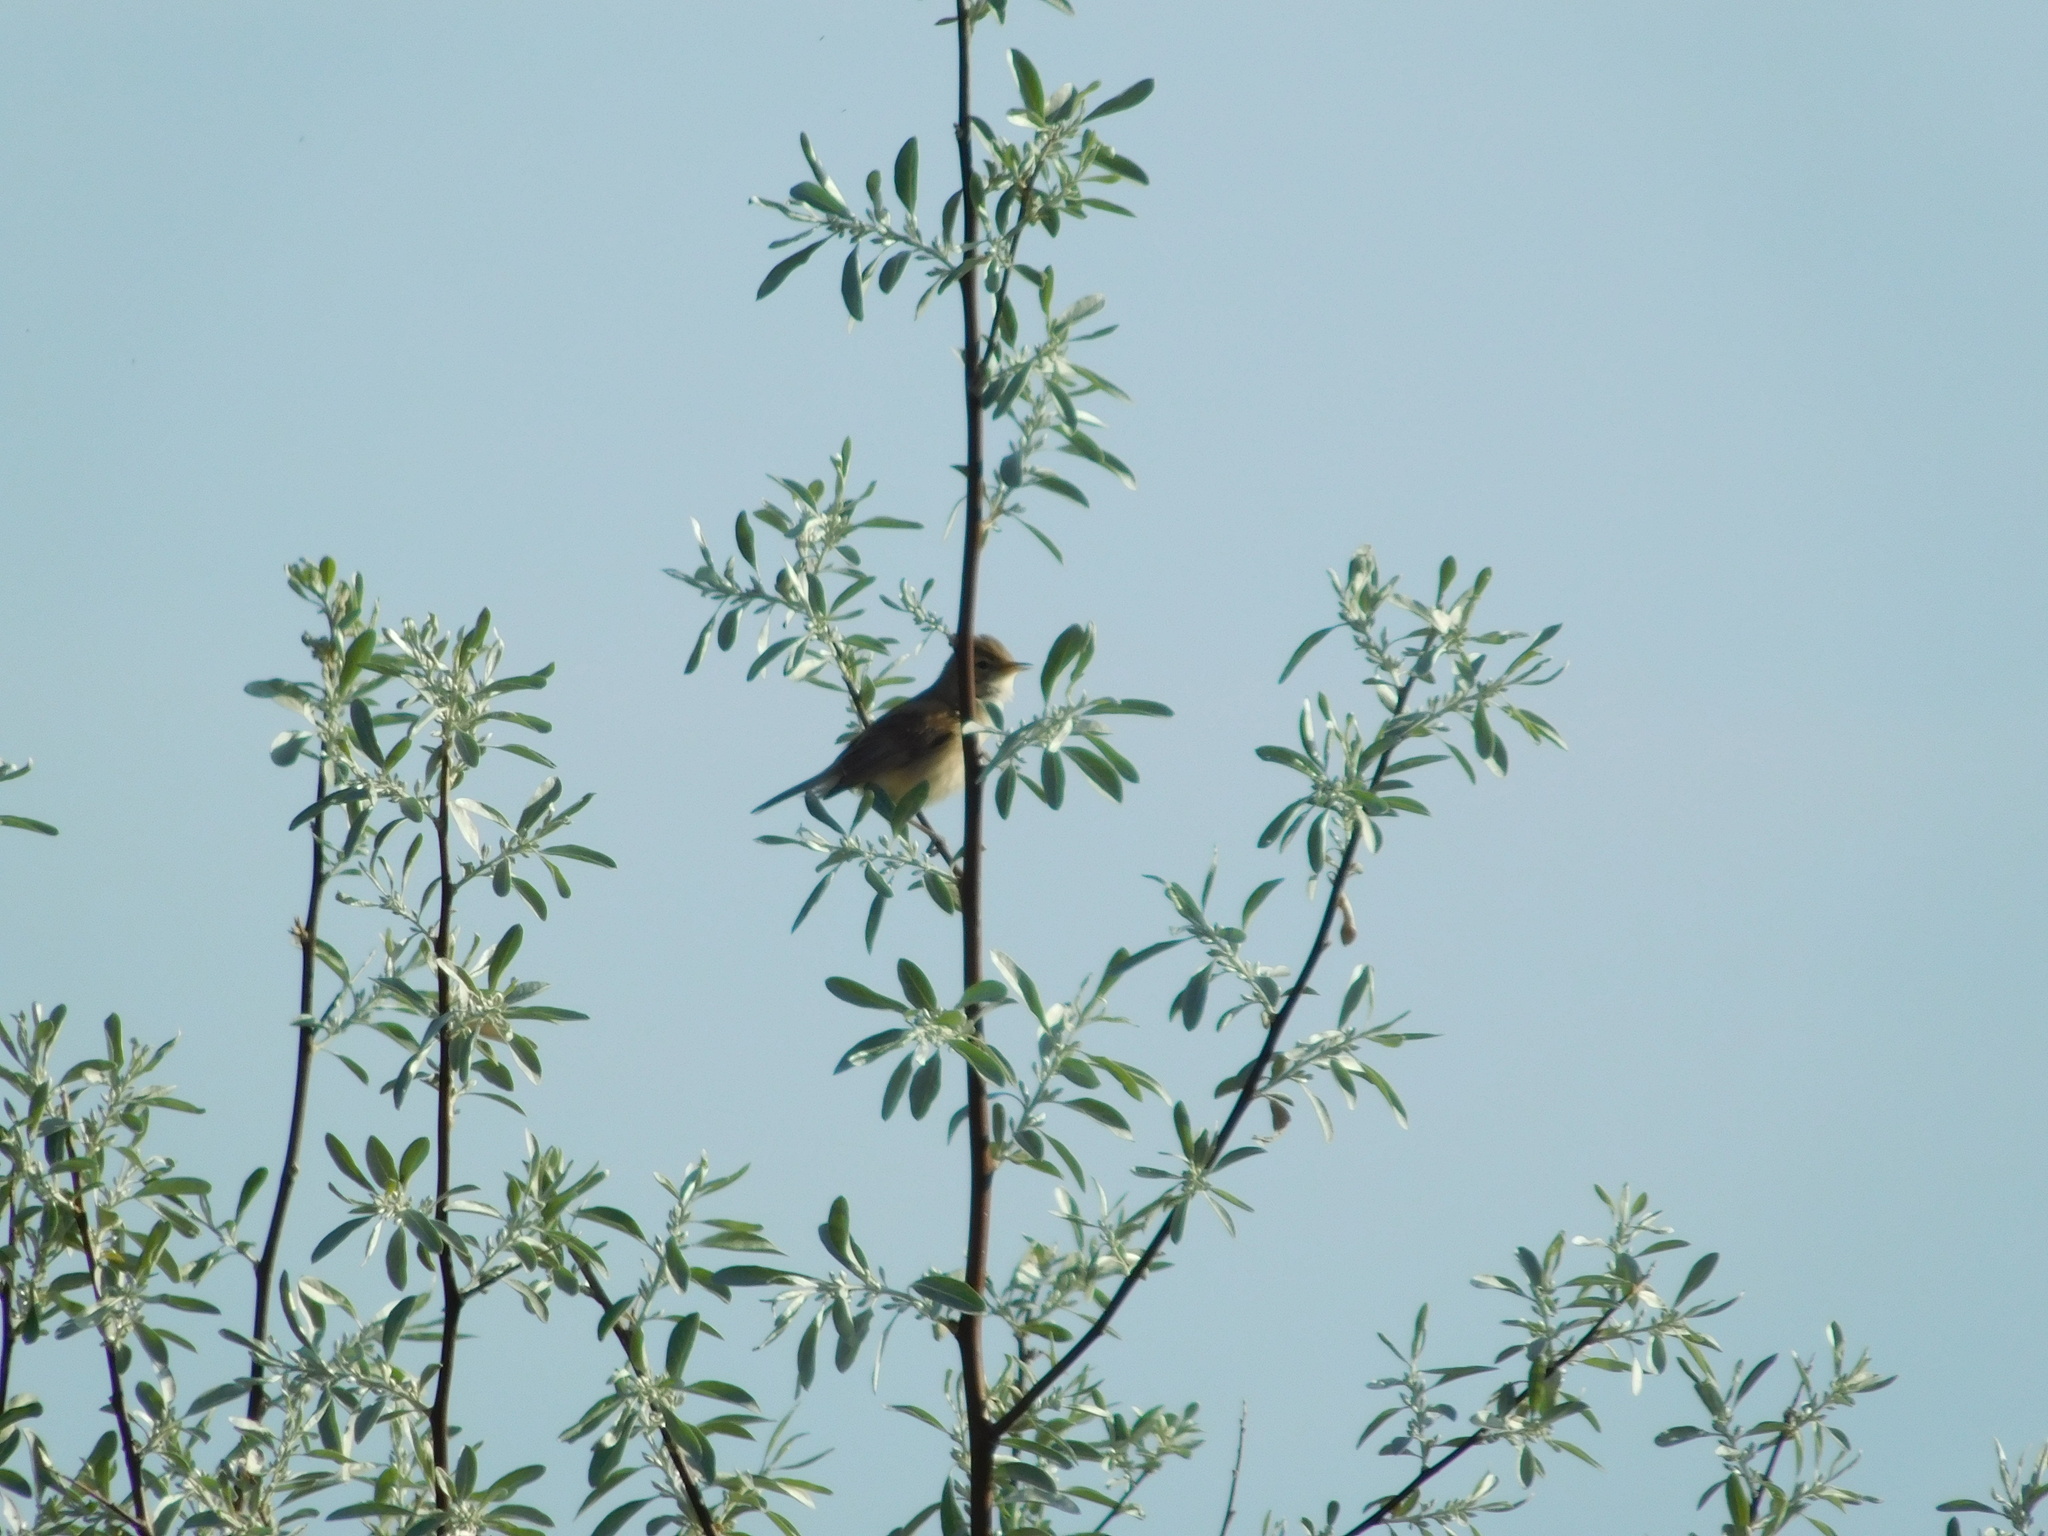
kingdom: Animalia
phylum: Chordata
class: Aves
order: Passeriformes
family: Acrocephalidae
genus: Iduna
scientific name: Iduna caligata
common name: Booted warbler
